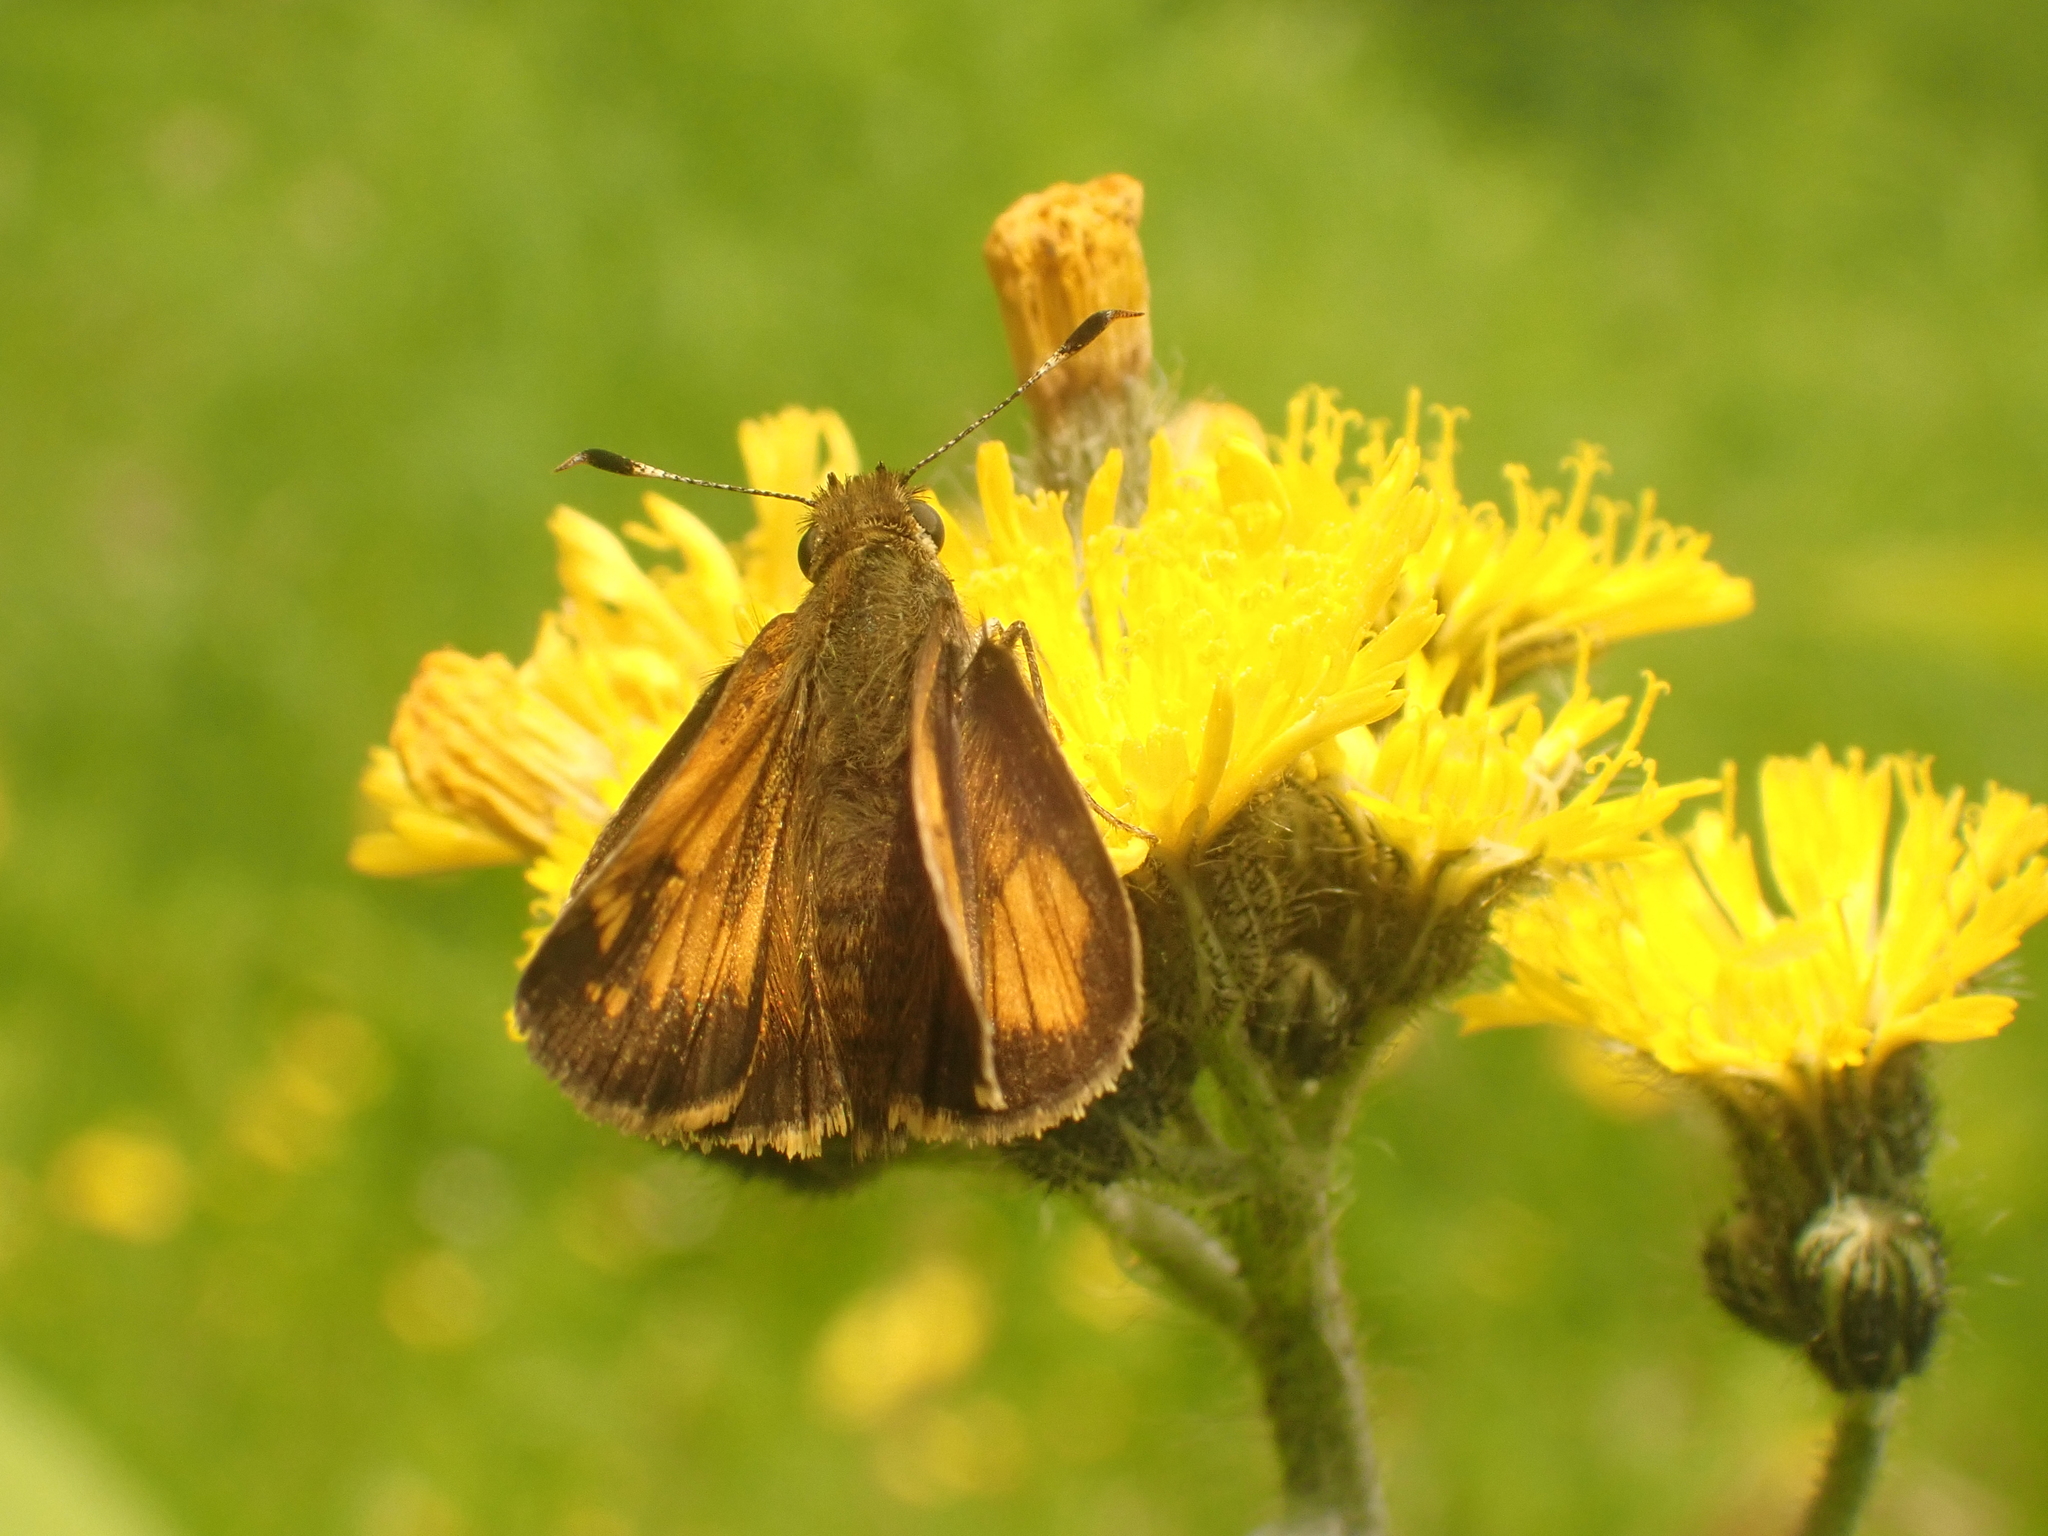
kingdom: Animalia
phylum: Arthropoda
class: Insecta
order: Lepidoptera
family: Hesperiidae
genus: Lon
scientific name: Lon hobomok
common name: Hobomok skipper
